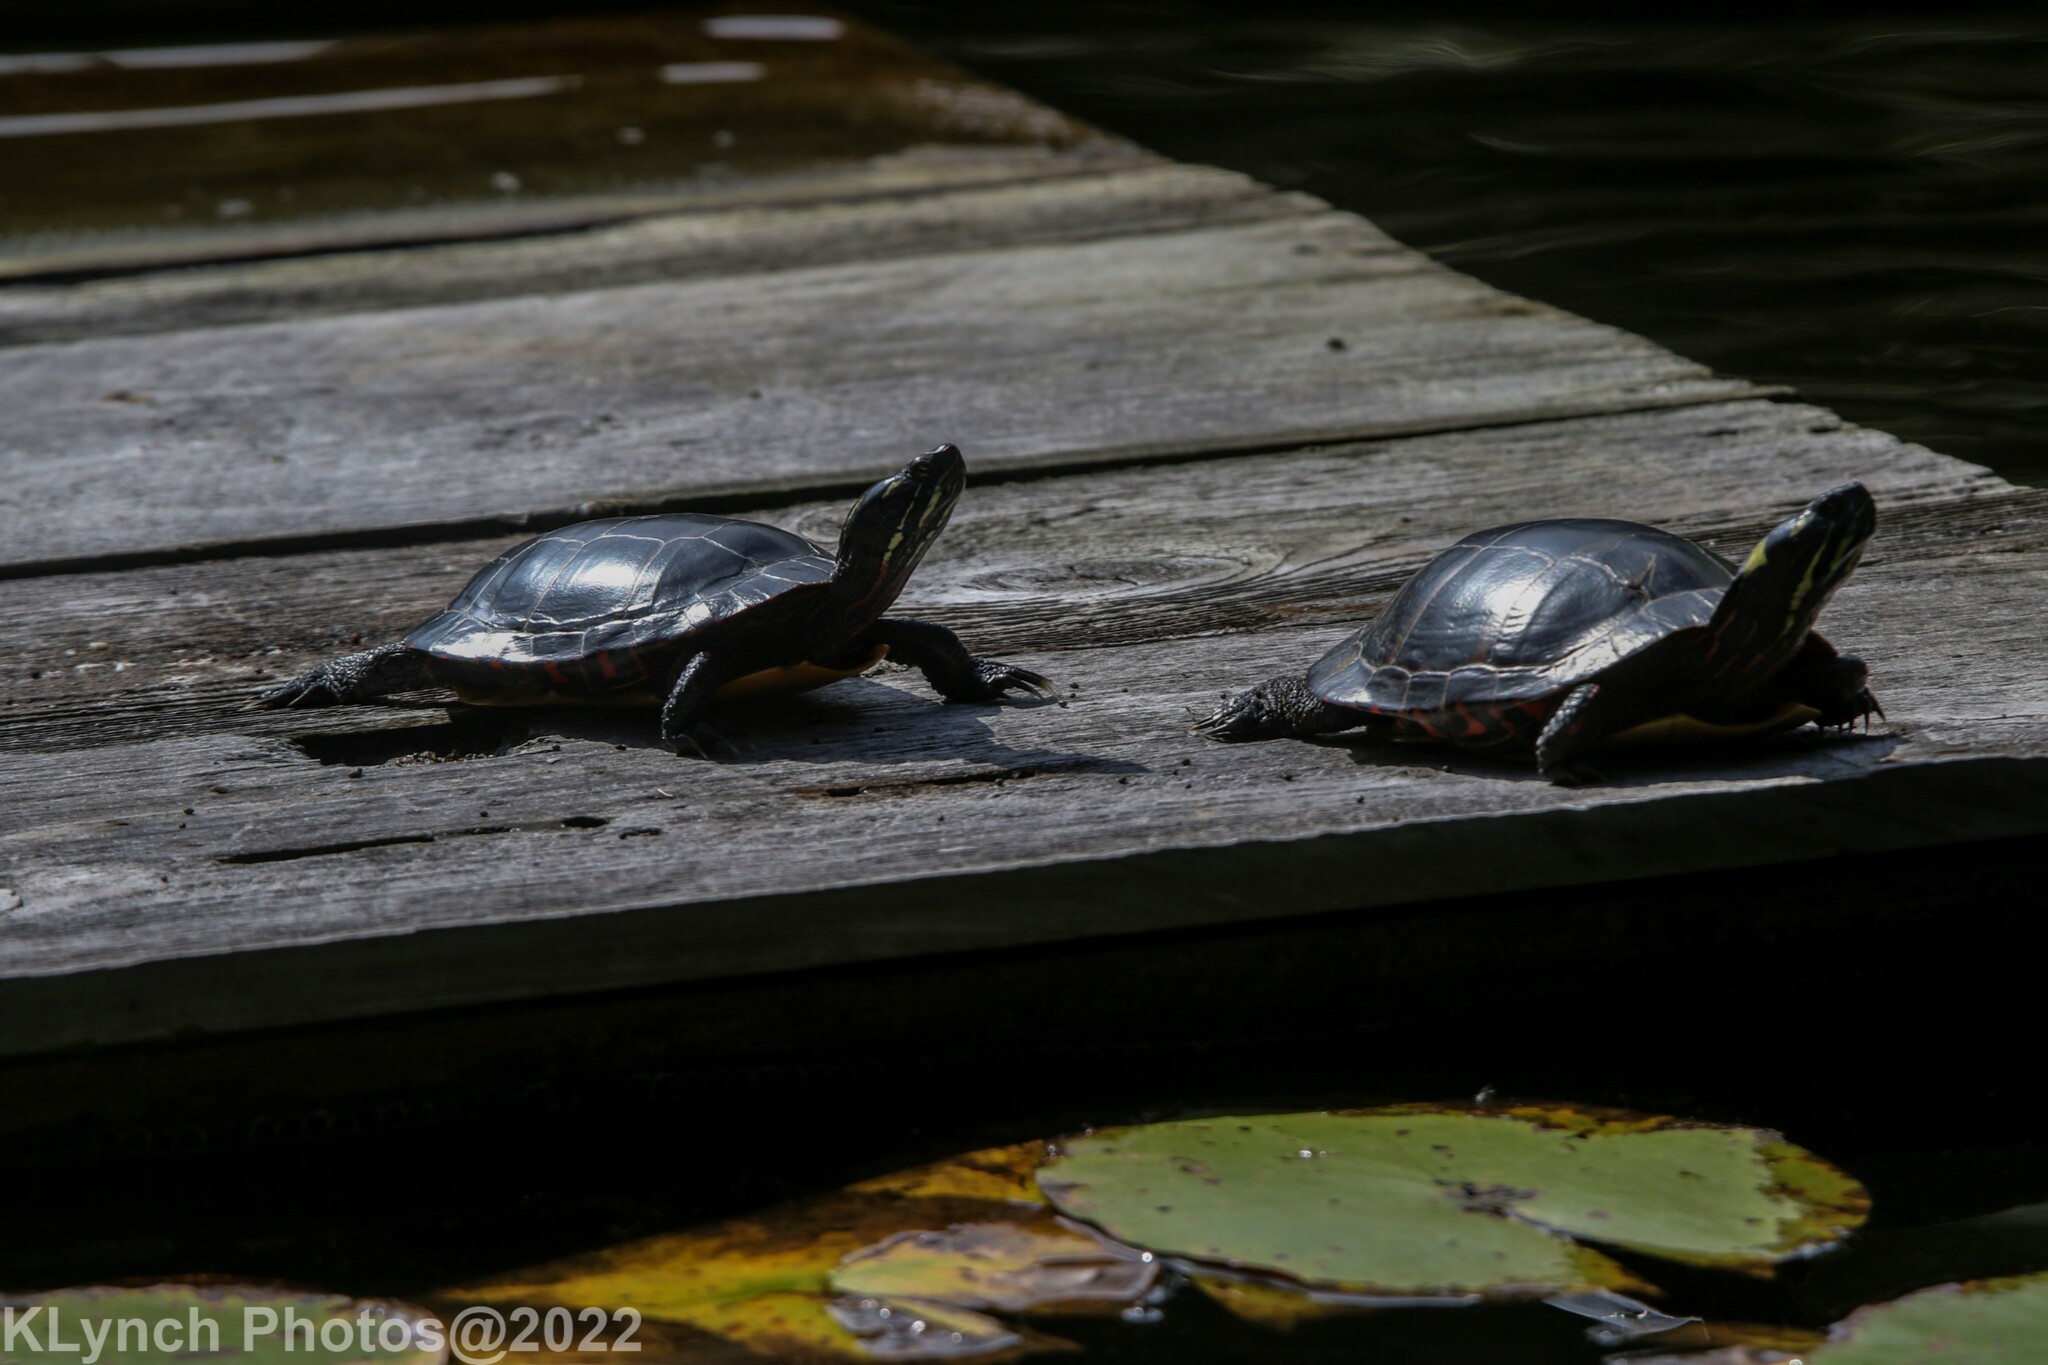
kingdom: Animalia
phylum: Chordata
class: Testudines
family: Emydidae
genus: Chrysemys
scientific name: Chrysemys picta
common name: Painted turtle
